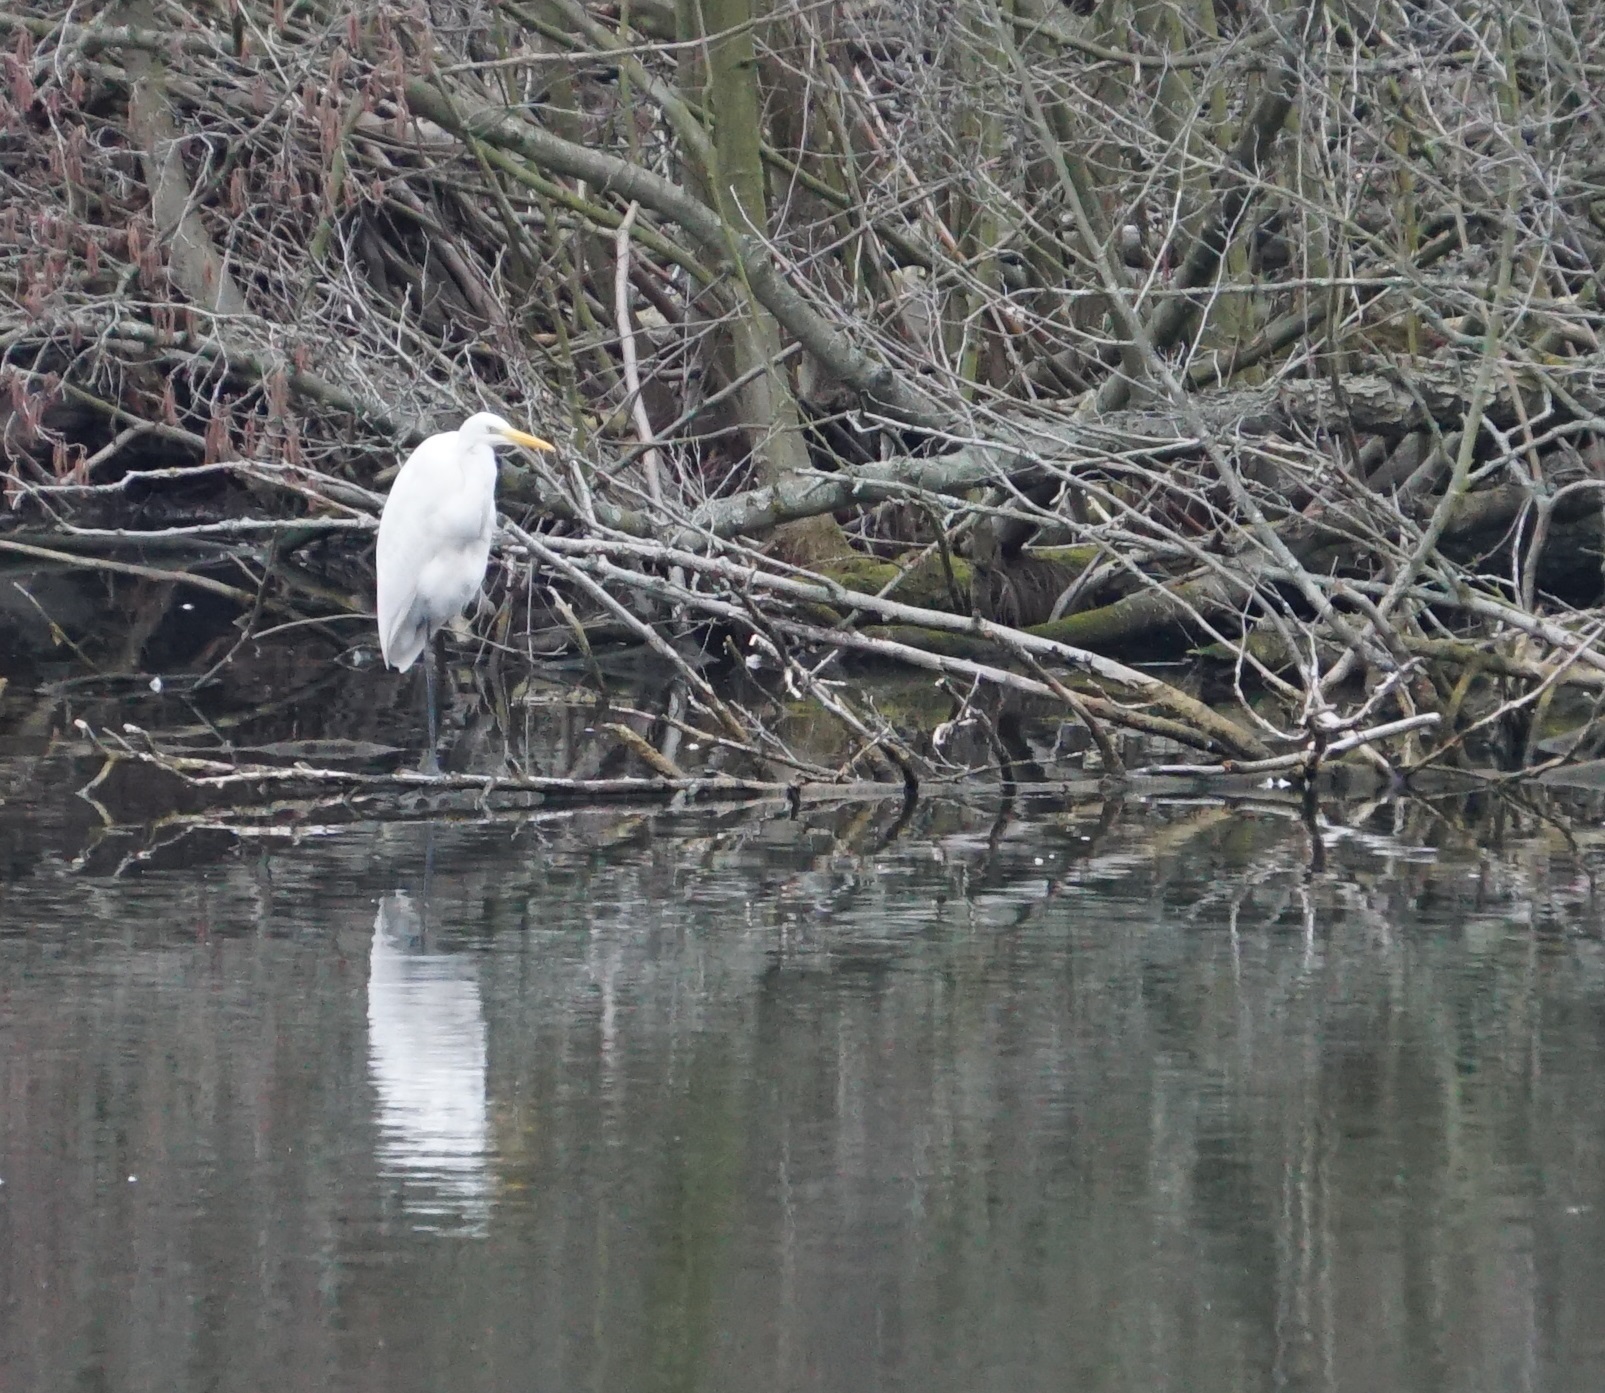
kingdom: Animalia
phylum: Chordata
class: Aves
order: Pelecaniformes
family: Ardeidae
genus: Ardea
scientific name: Ardea alba
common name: Great egret
